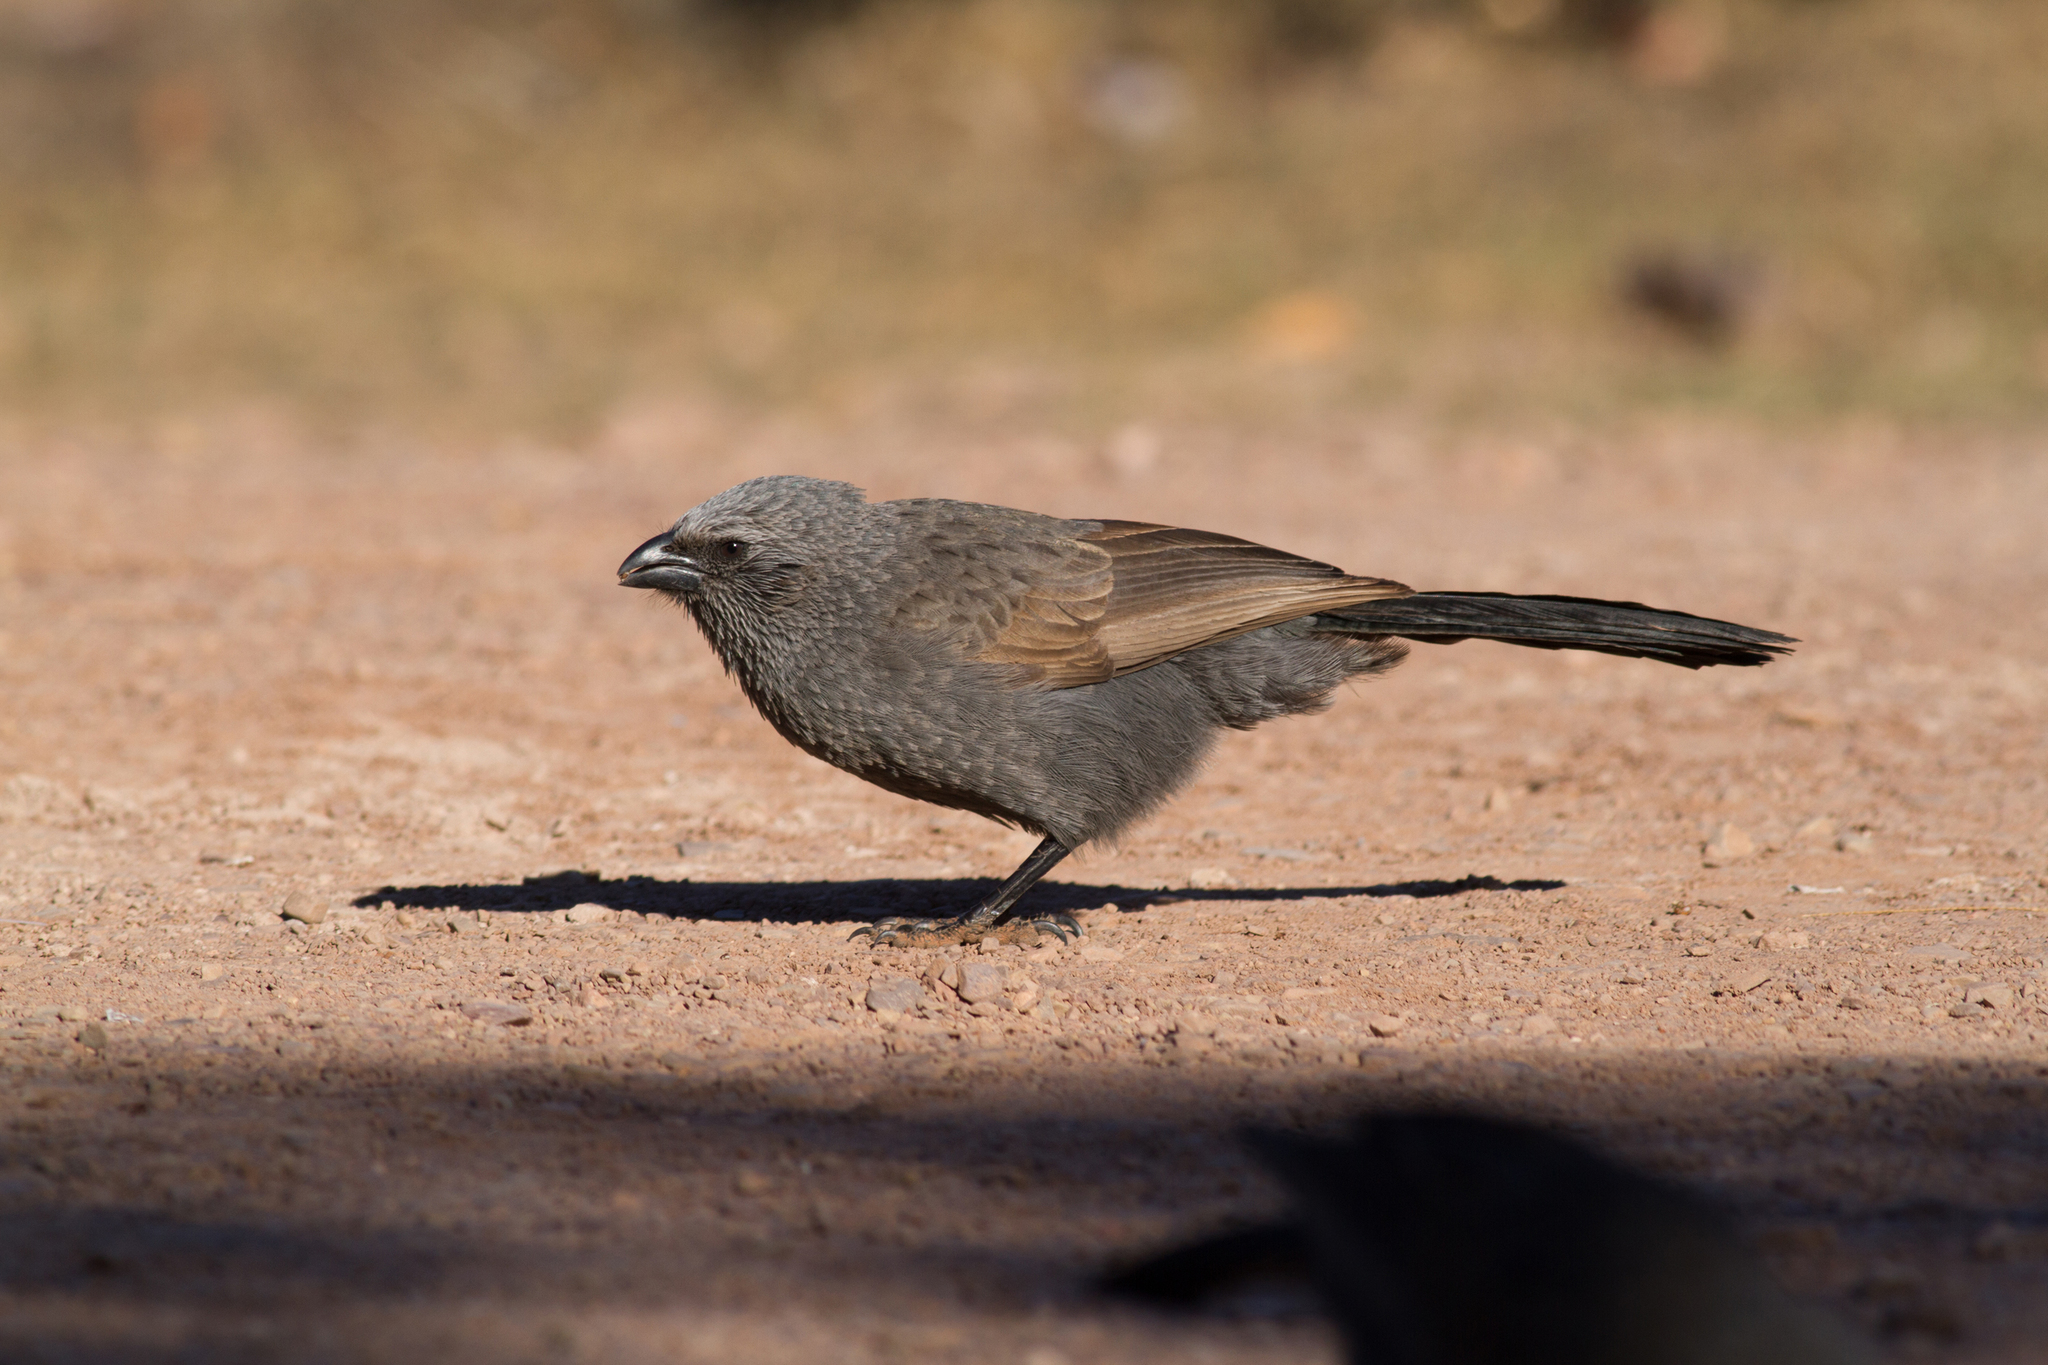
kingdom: Animalia
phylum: Chordata
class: Aves
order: Passeriformes
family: Corcoracidae
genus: Struthidea
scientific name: Struthidea cinerea
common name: Apostlebird
